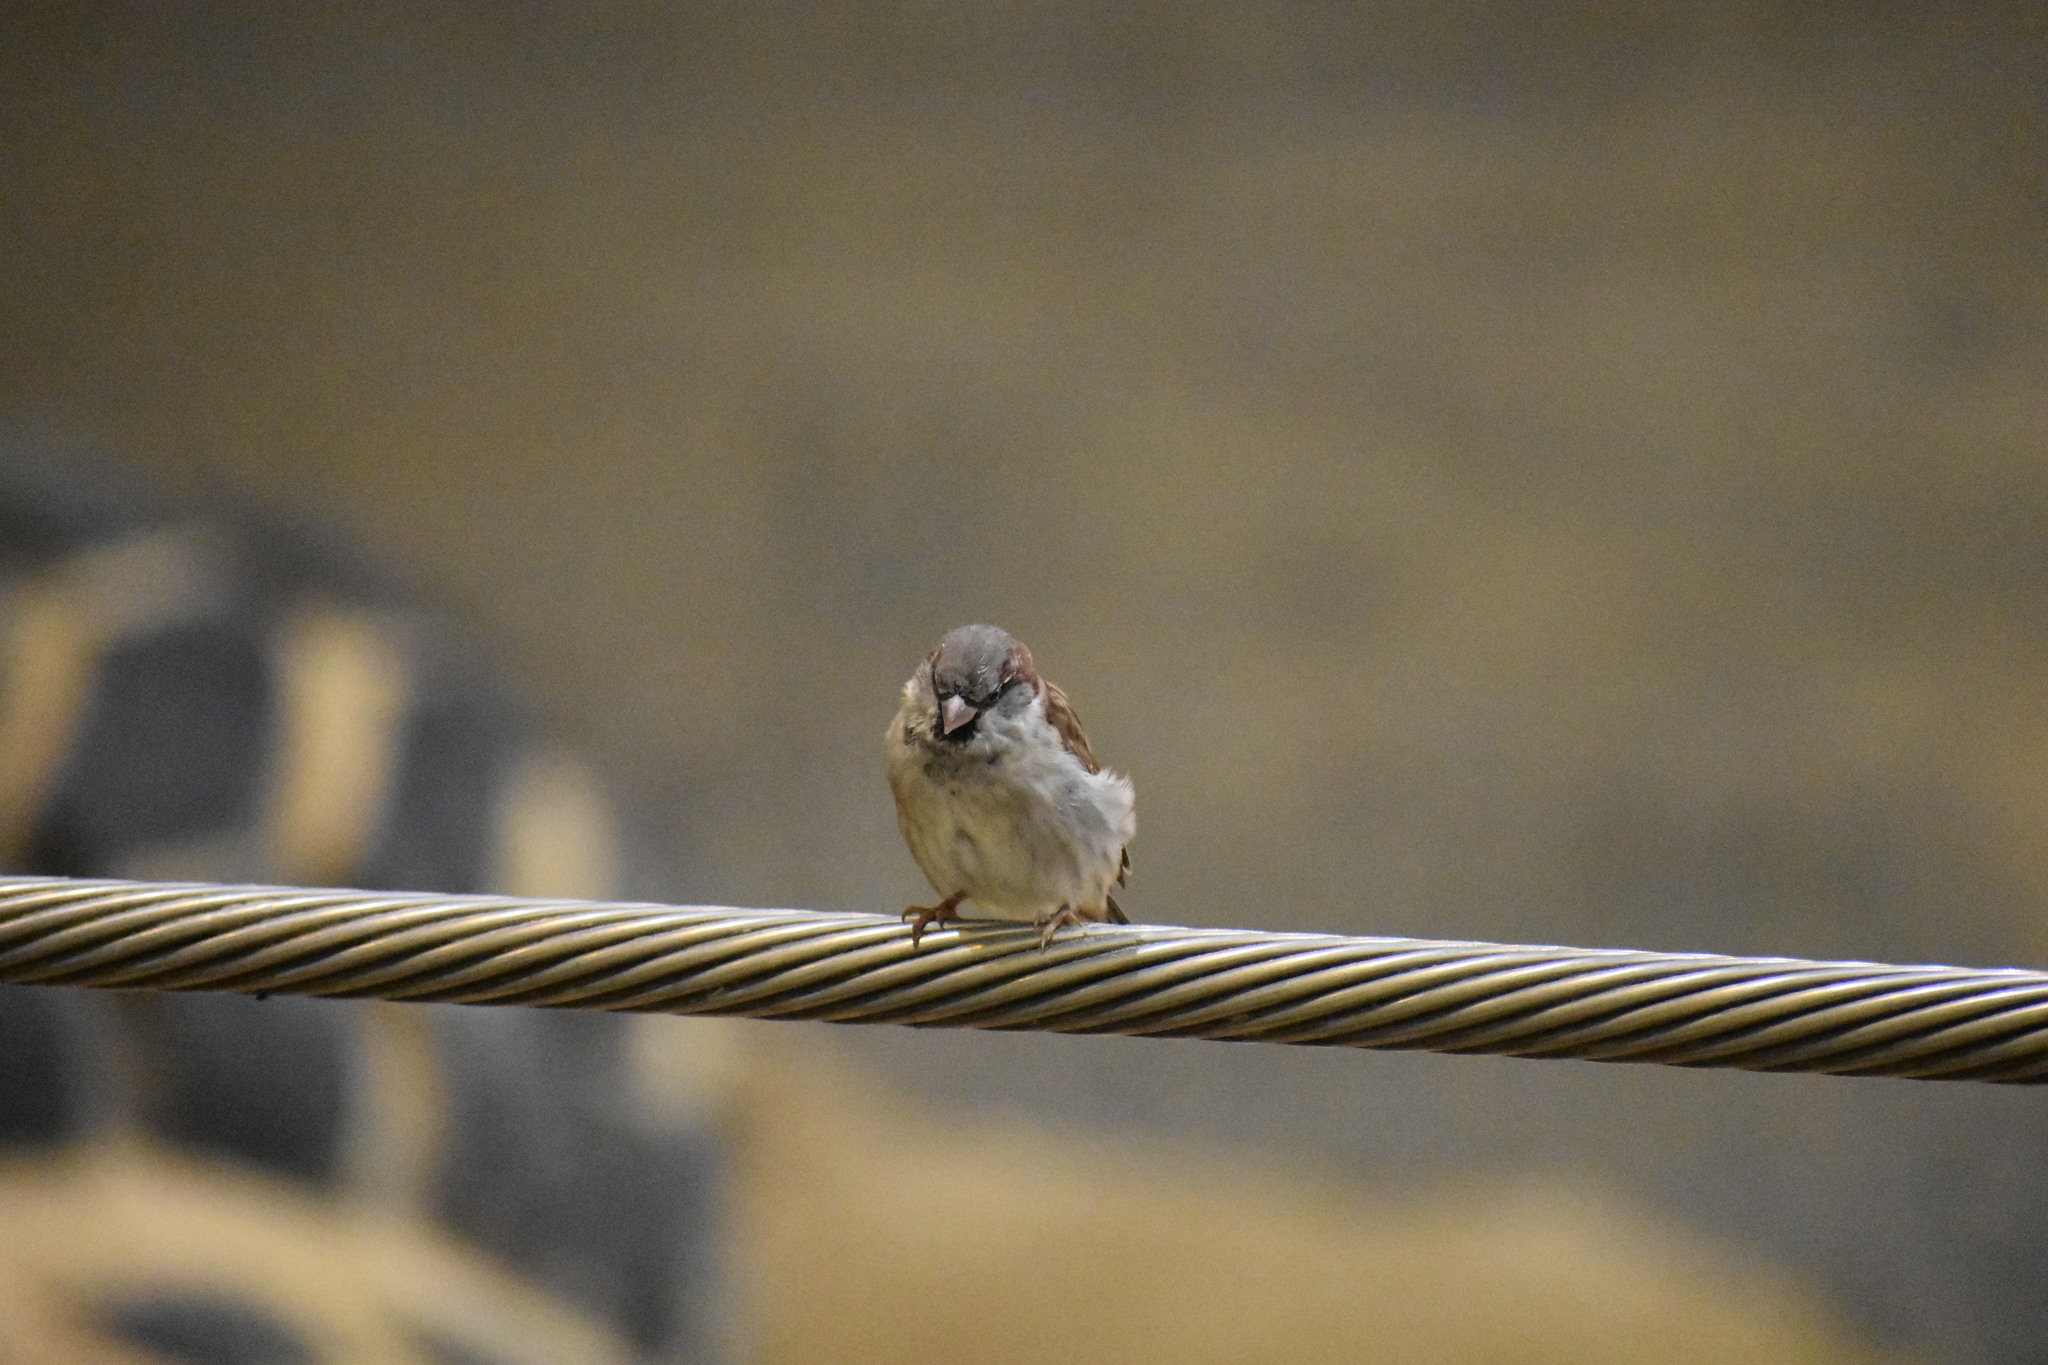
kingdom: Animalia
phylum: Chordata
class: Aves
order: Passeriformes
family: Passeridae
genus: Passer
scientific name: Passer domesticus
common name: House sparrow
